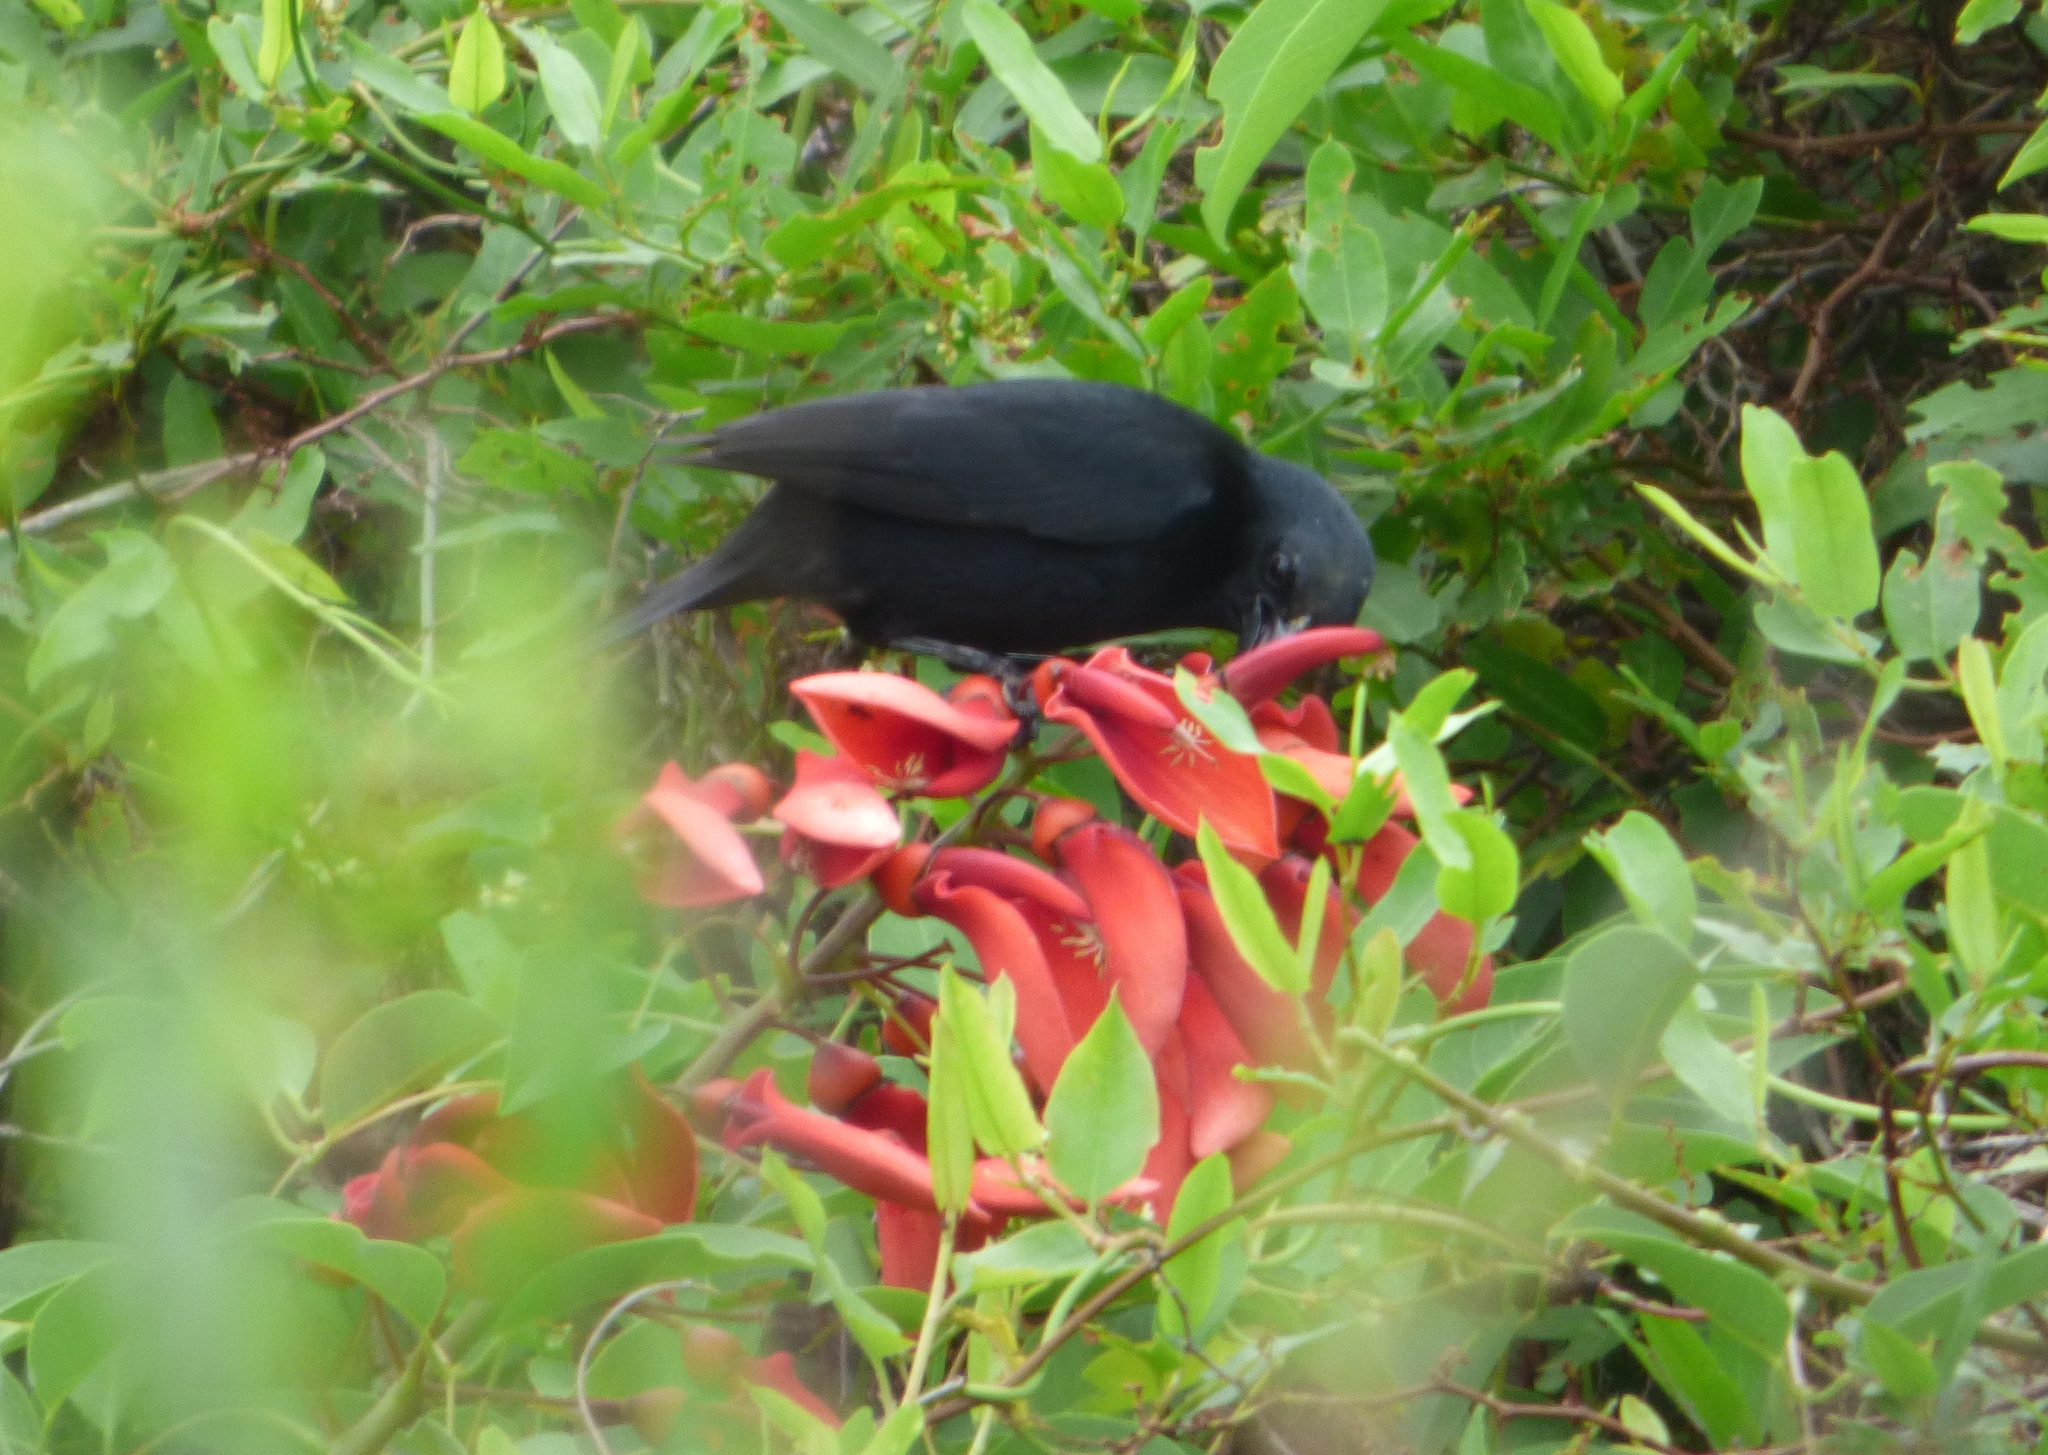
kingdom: Animalia
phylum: Chordata
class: Aves
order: Passeriformes
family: Icteridae
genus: Agelasticus
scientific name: Agelasticus cyanopus
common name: Unicolored blackbird
